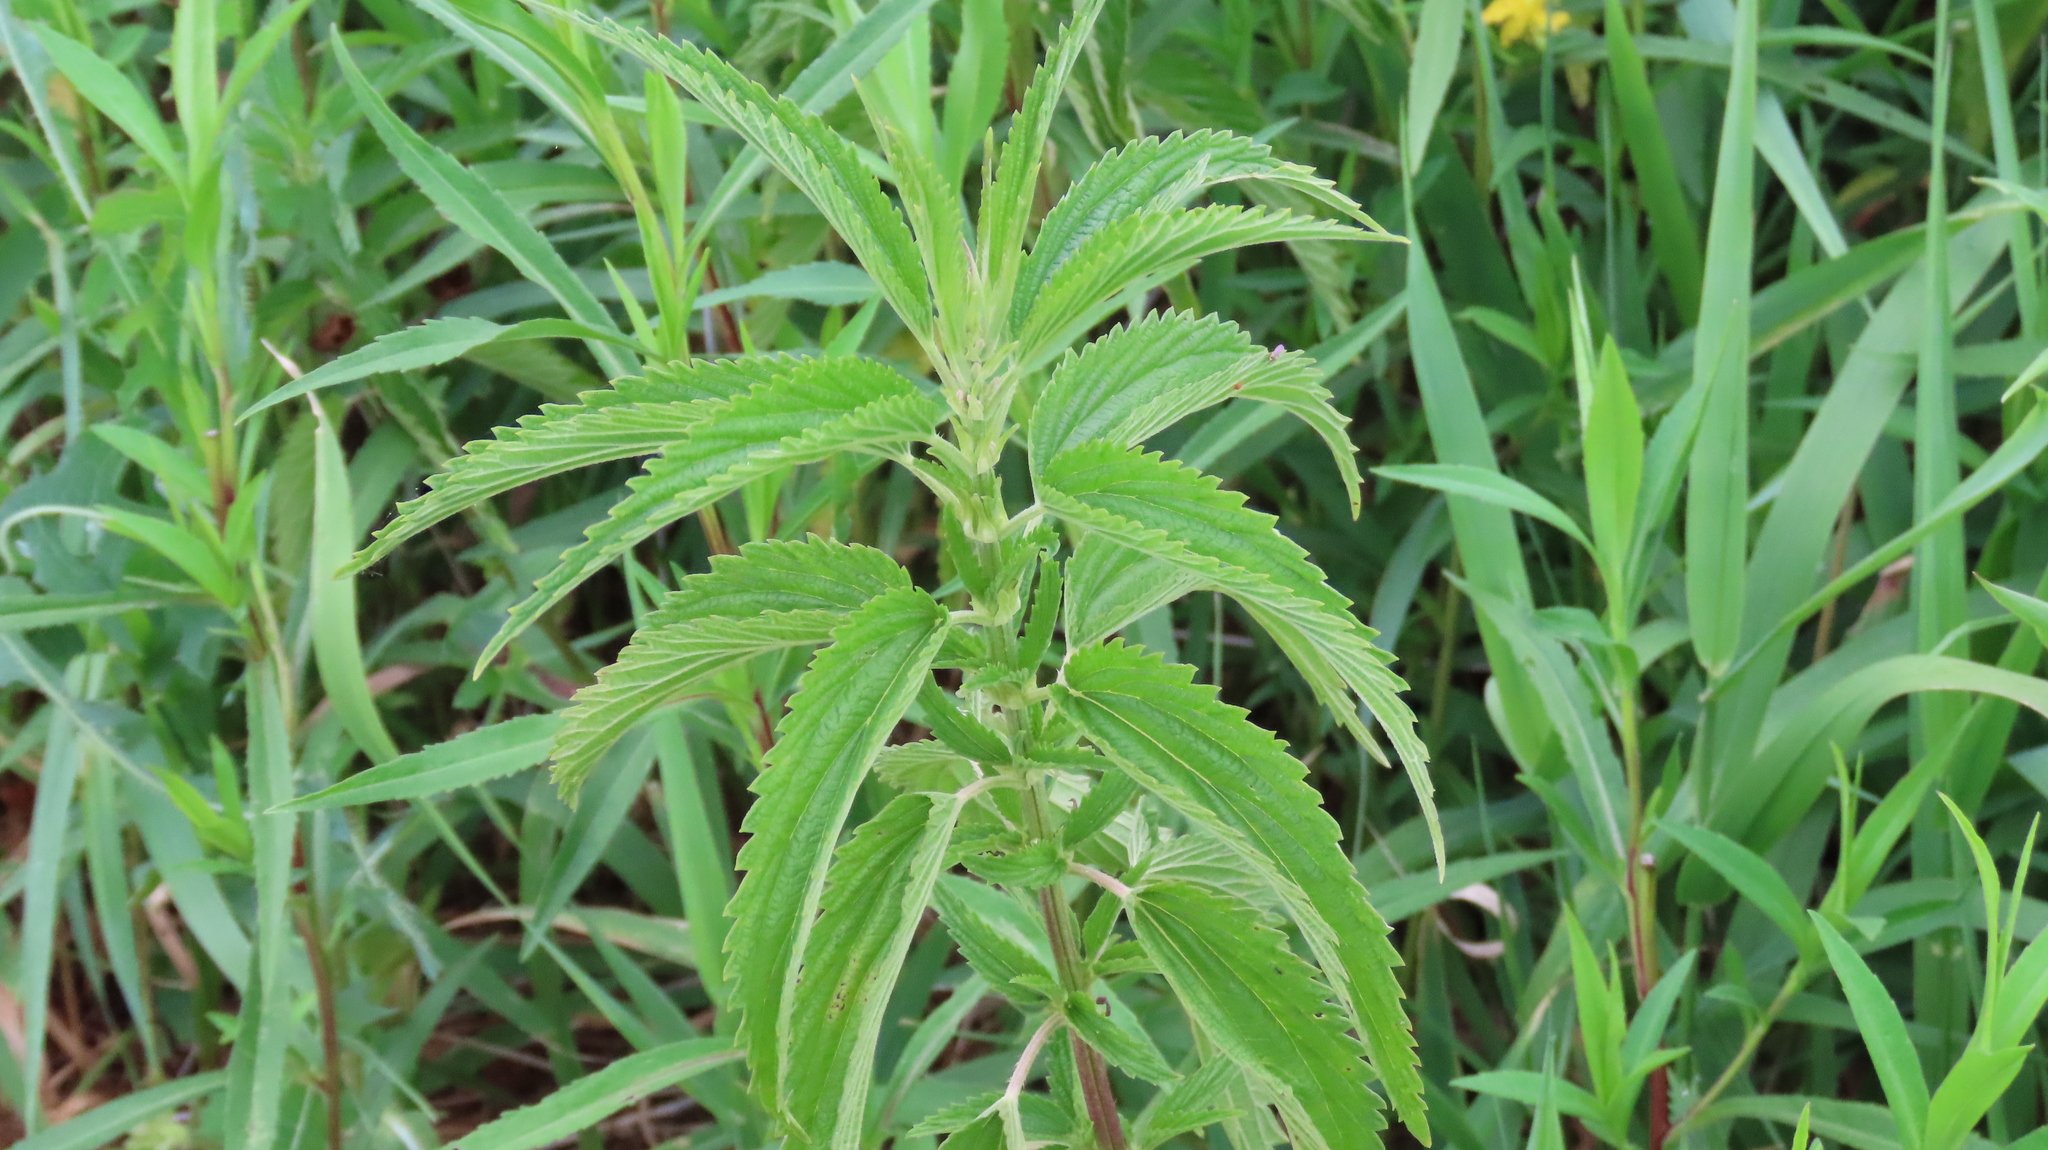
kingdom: Plantae
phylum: Tracheophyta
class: Magnoliopsida
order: Rosales
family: Urticaceae
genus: Urtica
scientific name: Urtica dioica
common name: Common nettle
